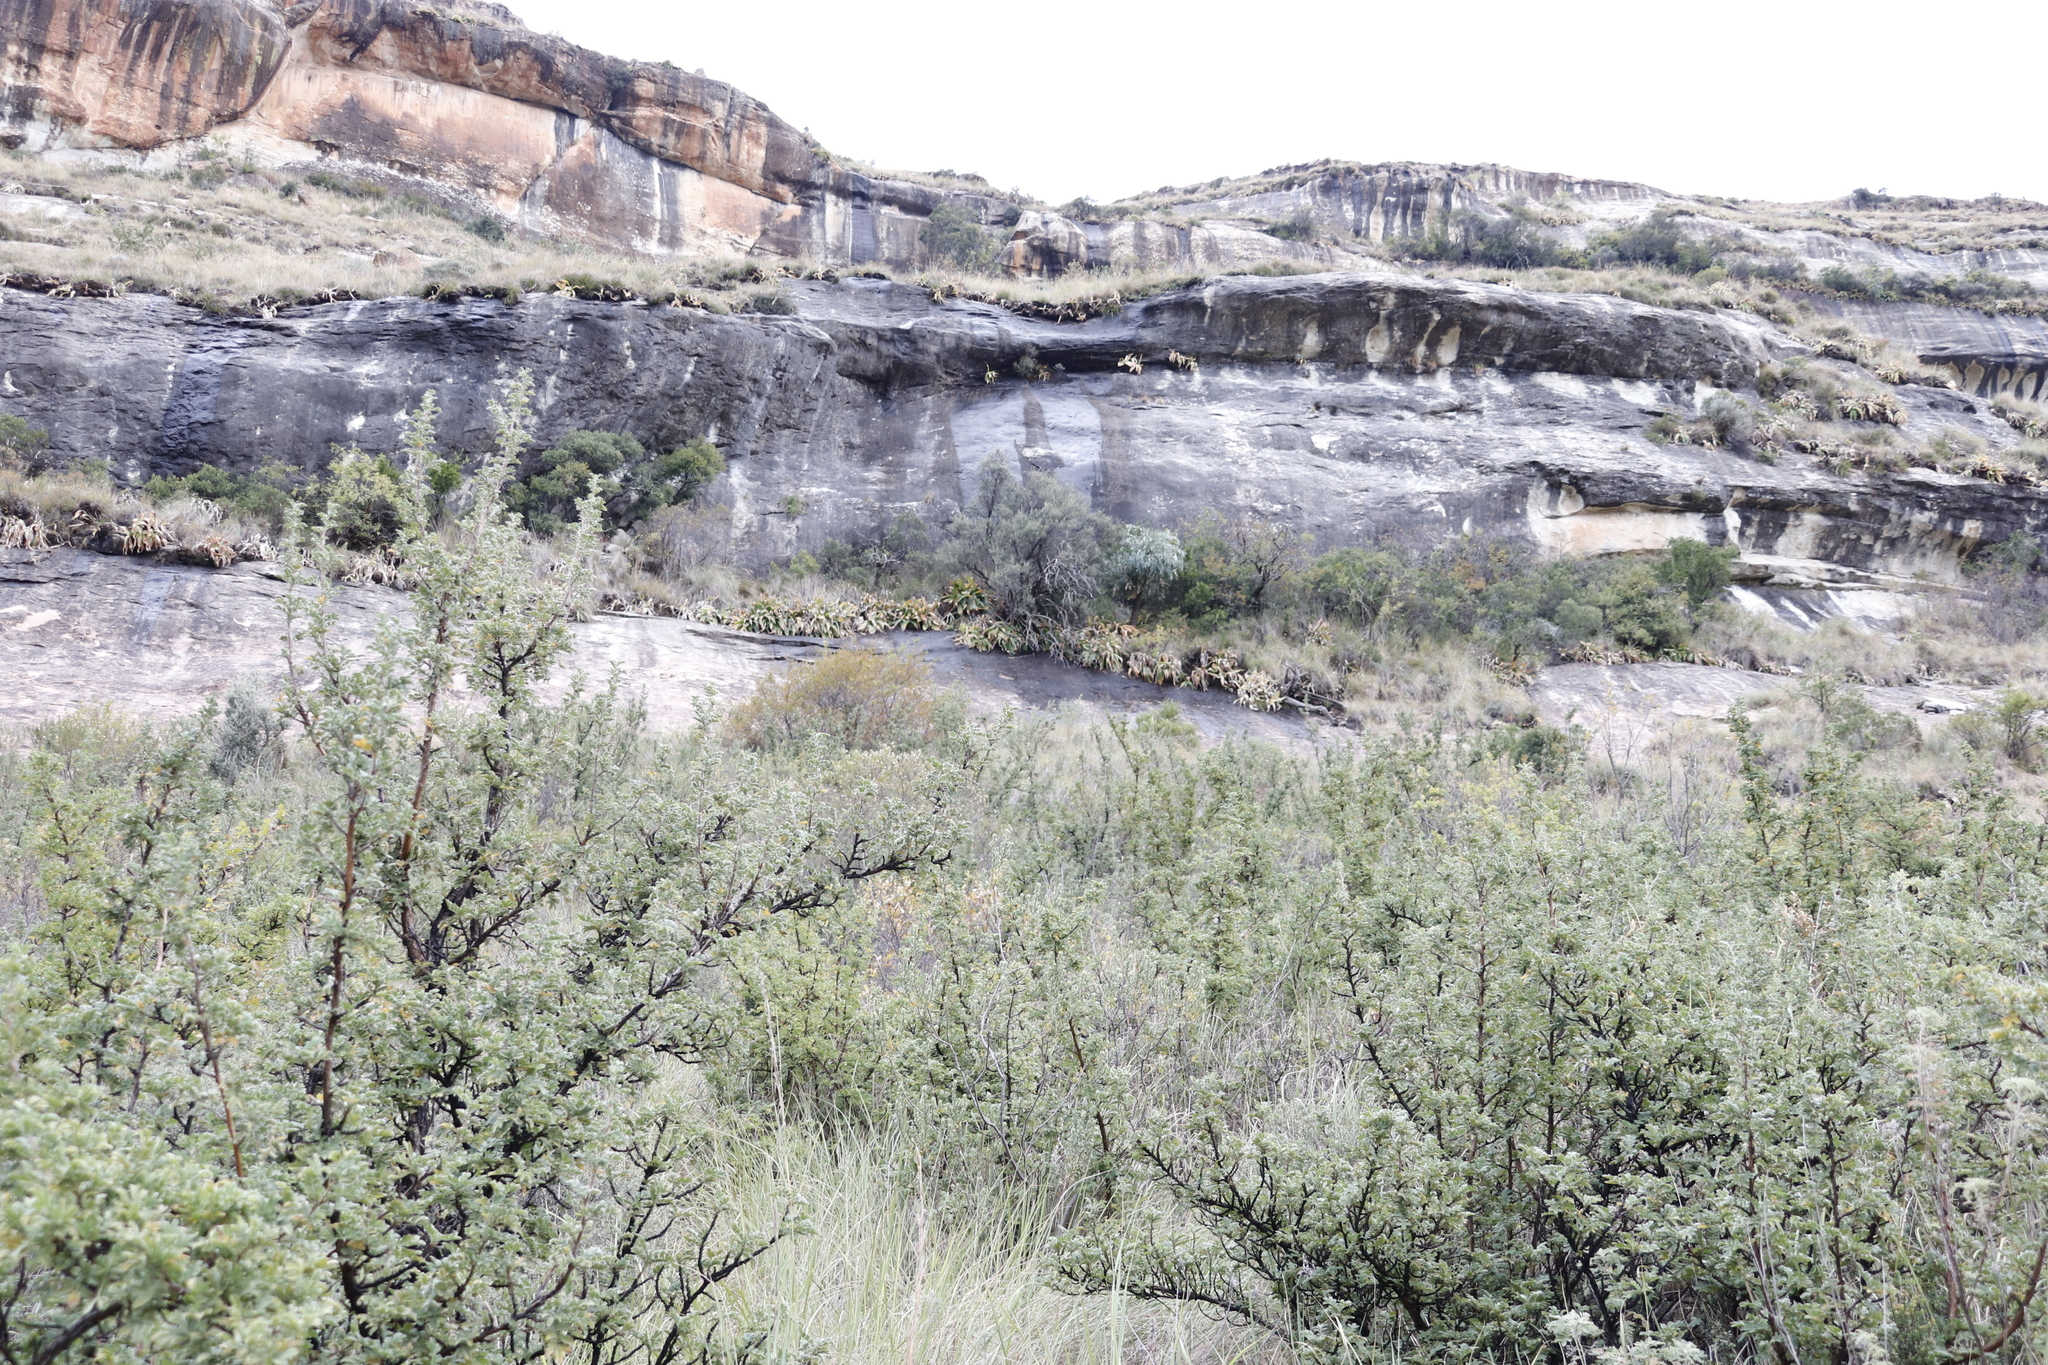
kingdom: Plantae
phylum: Tracheophyta
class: Liliopsida
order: Asparagales
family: Asparagaceae
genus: Merwilla
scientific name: Merwilla plumbea
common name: Blue-squill
